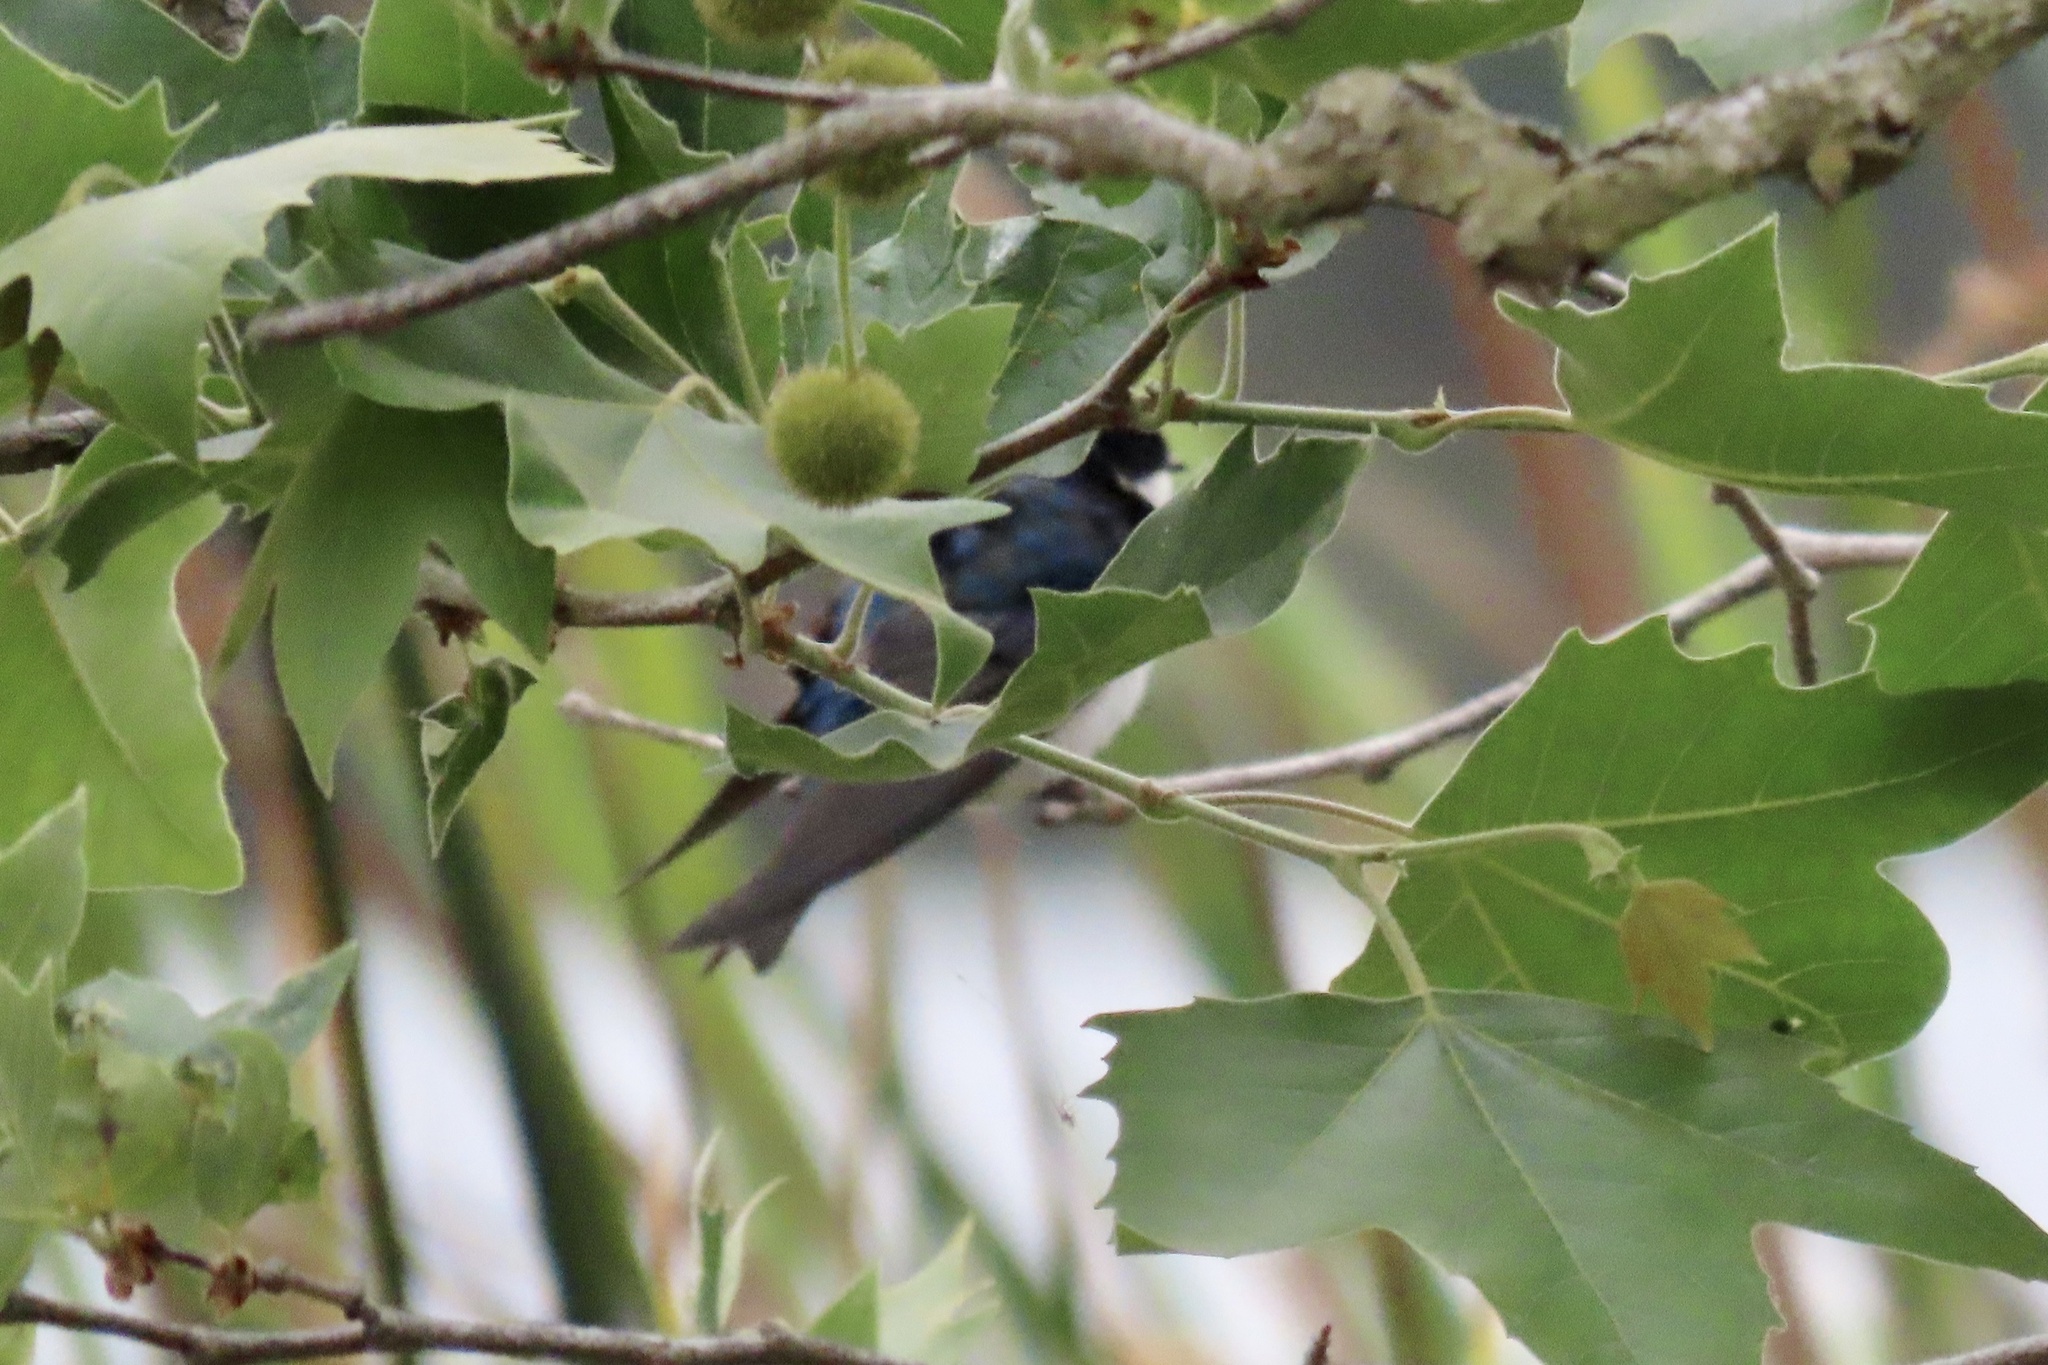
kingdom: Animalia
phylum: Chordata
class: Aves
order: Passeriformes
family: Hirundinidae
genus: Tachycineta
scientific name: Tachycineta bicolor
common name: Tree swallow
